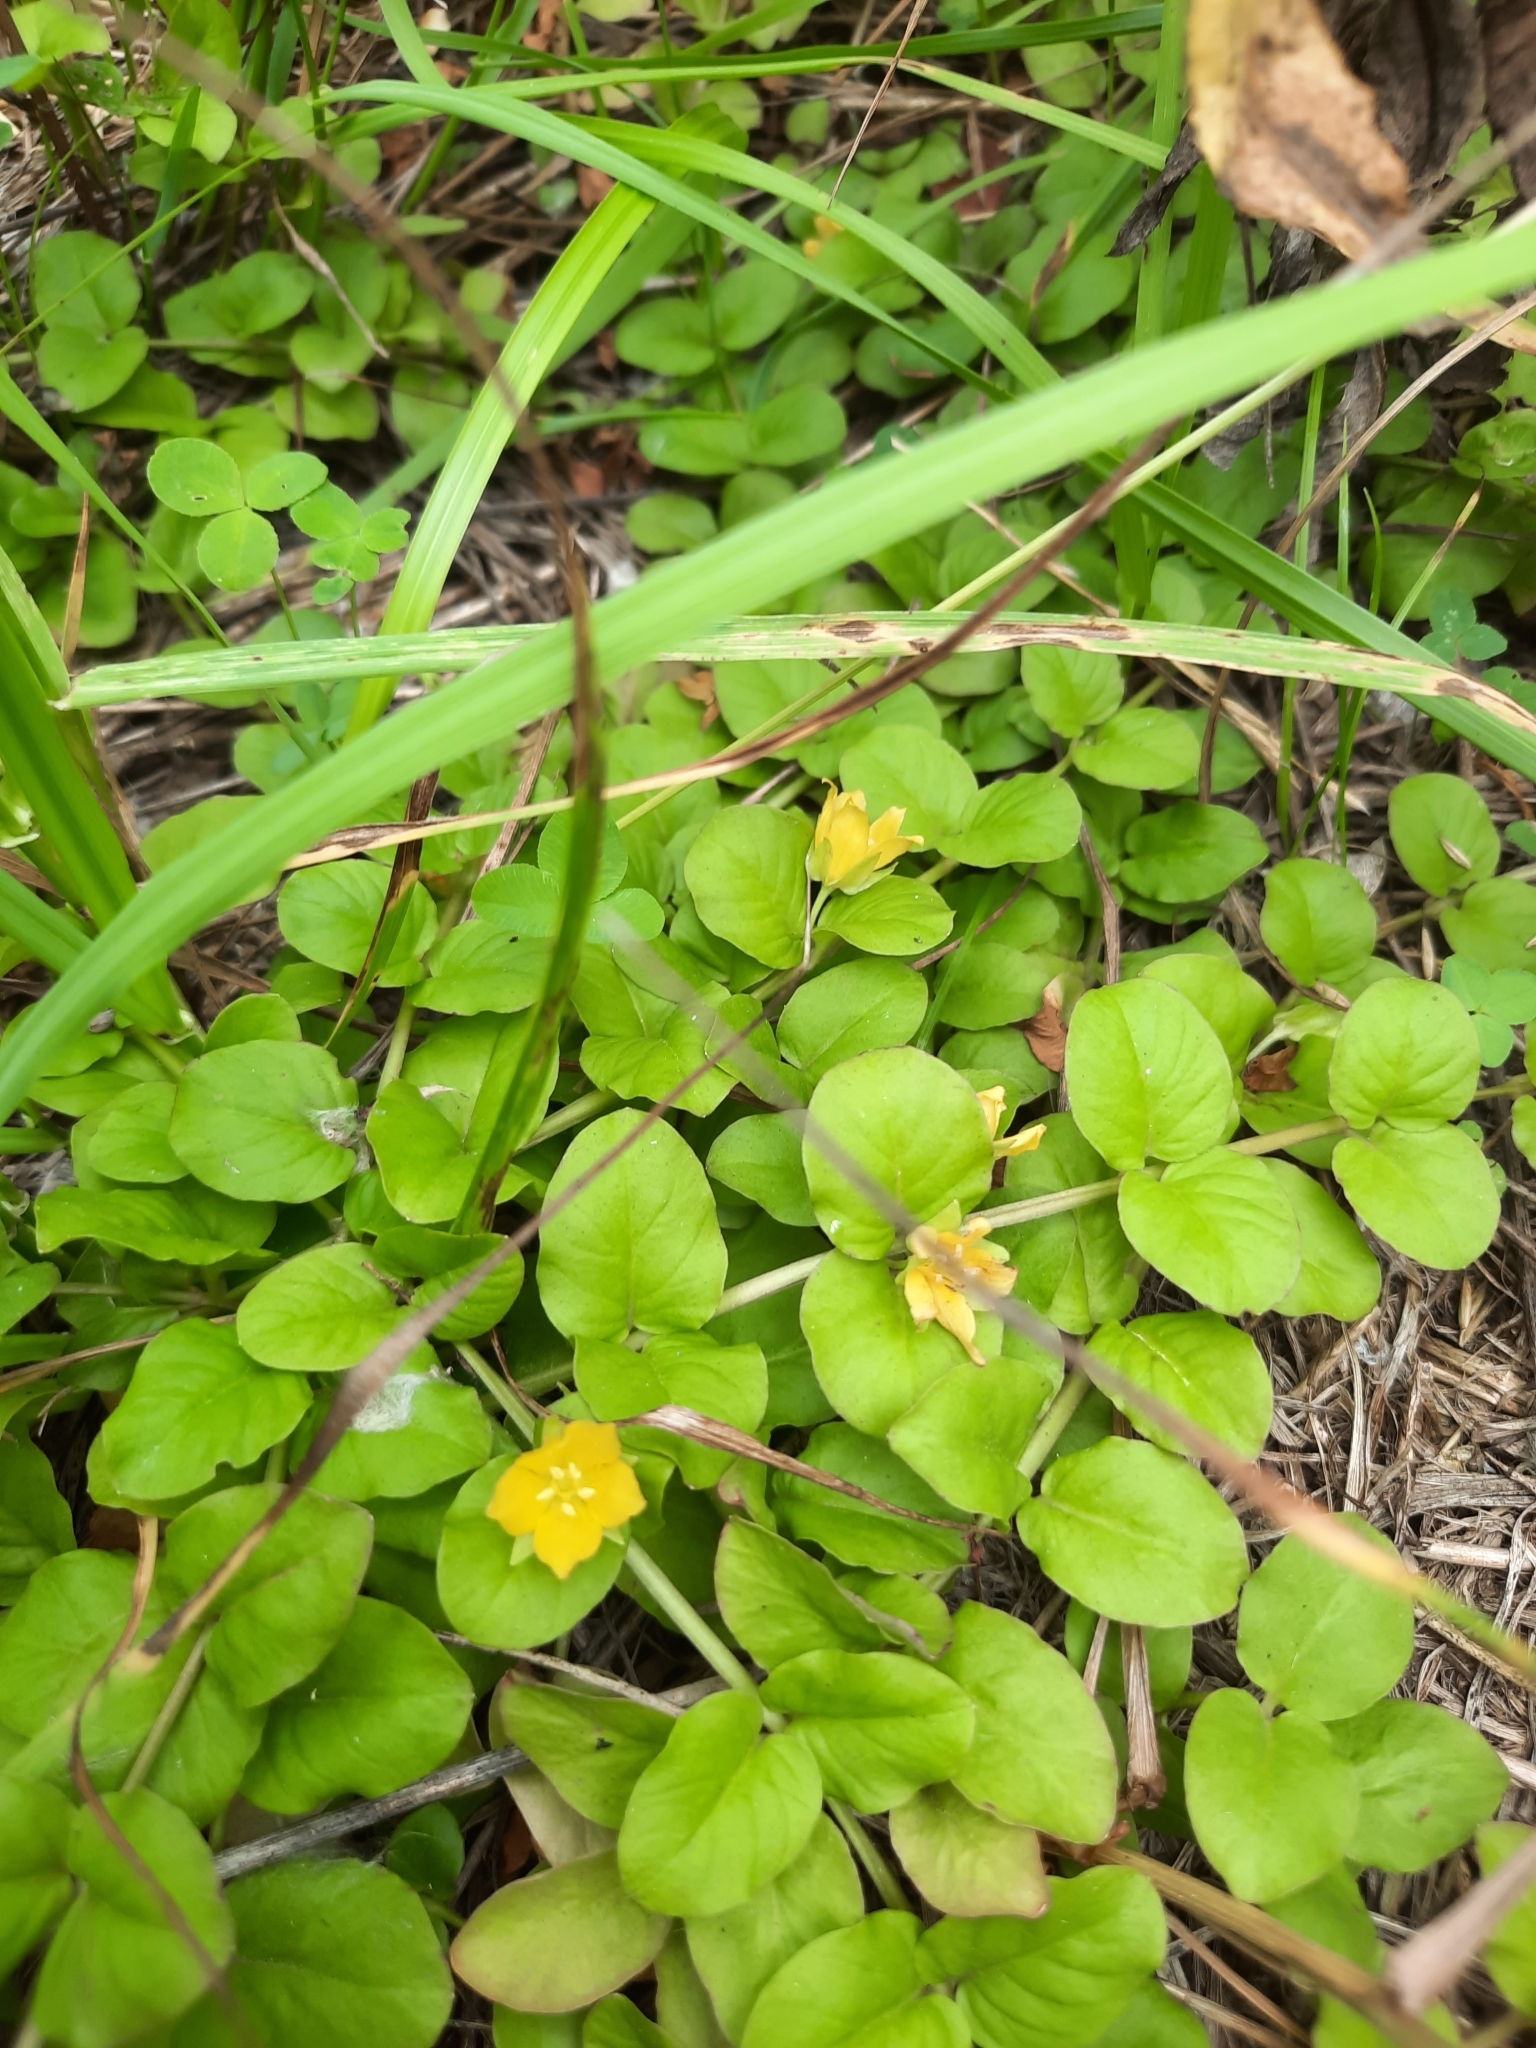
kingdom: Plantae
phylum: Tracheophyta
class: Magnoliopsida
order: Ericales
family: Primulaceae
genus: Lysimachia
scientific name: Lysimachia nummularia
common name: Moneywort
